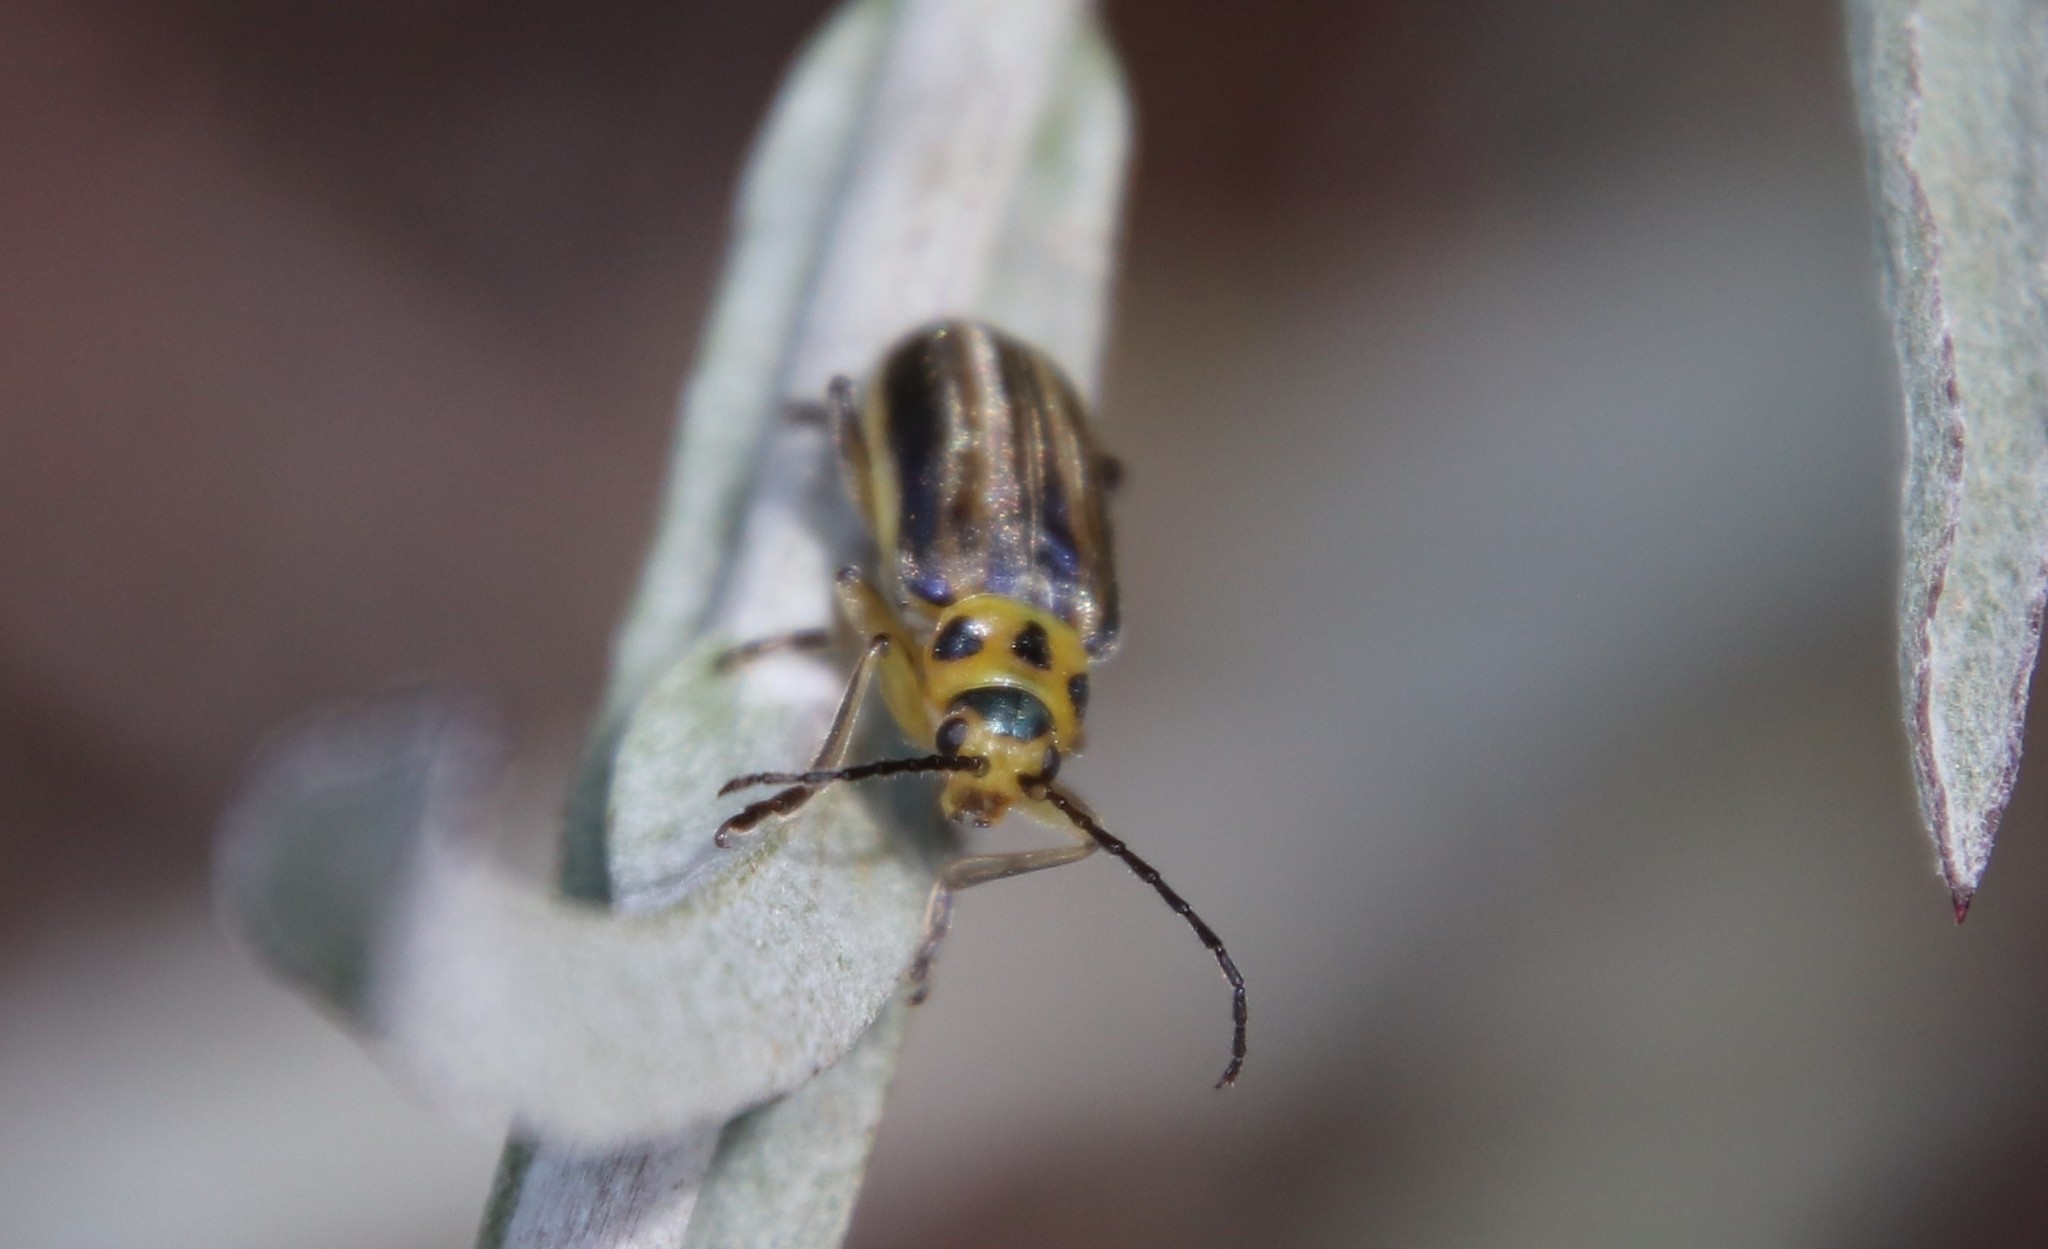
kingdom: Animalia
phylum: Arthropoda
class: Insecta
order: Coleoptera
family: Chrysomelidae
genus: Trirhabda
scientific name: Trirhabda luteocincta
